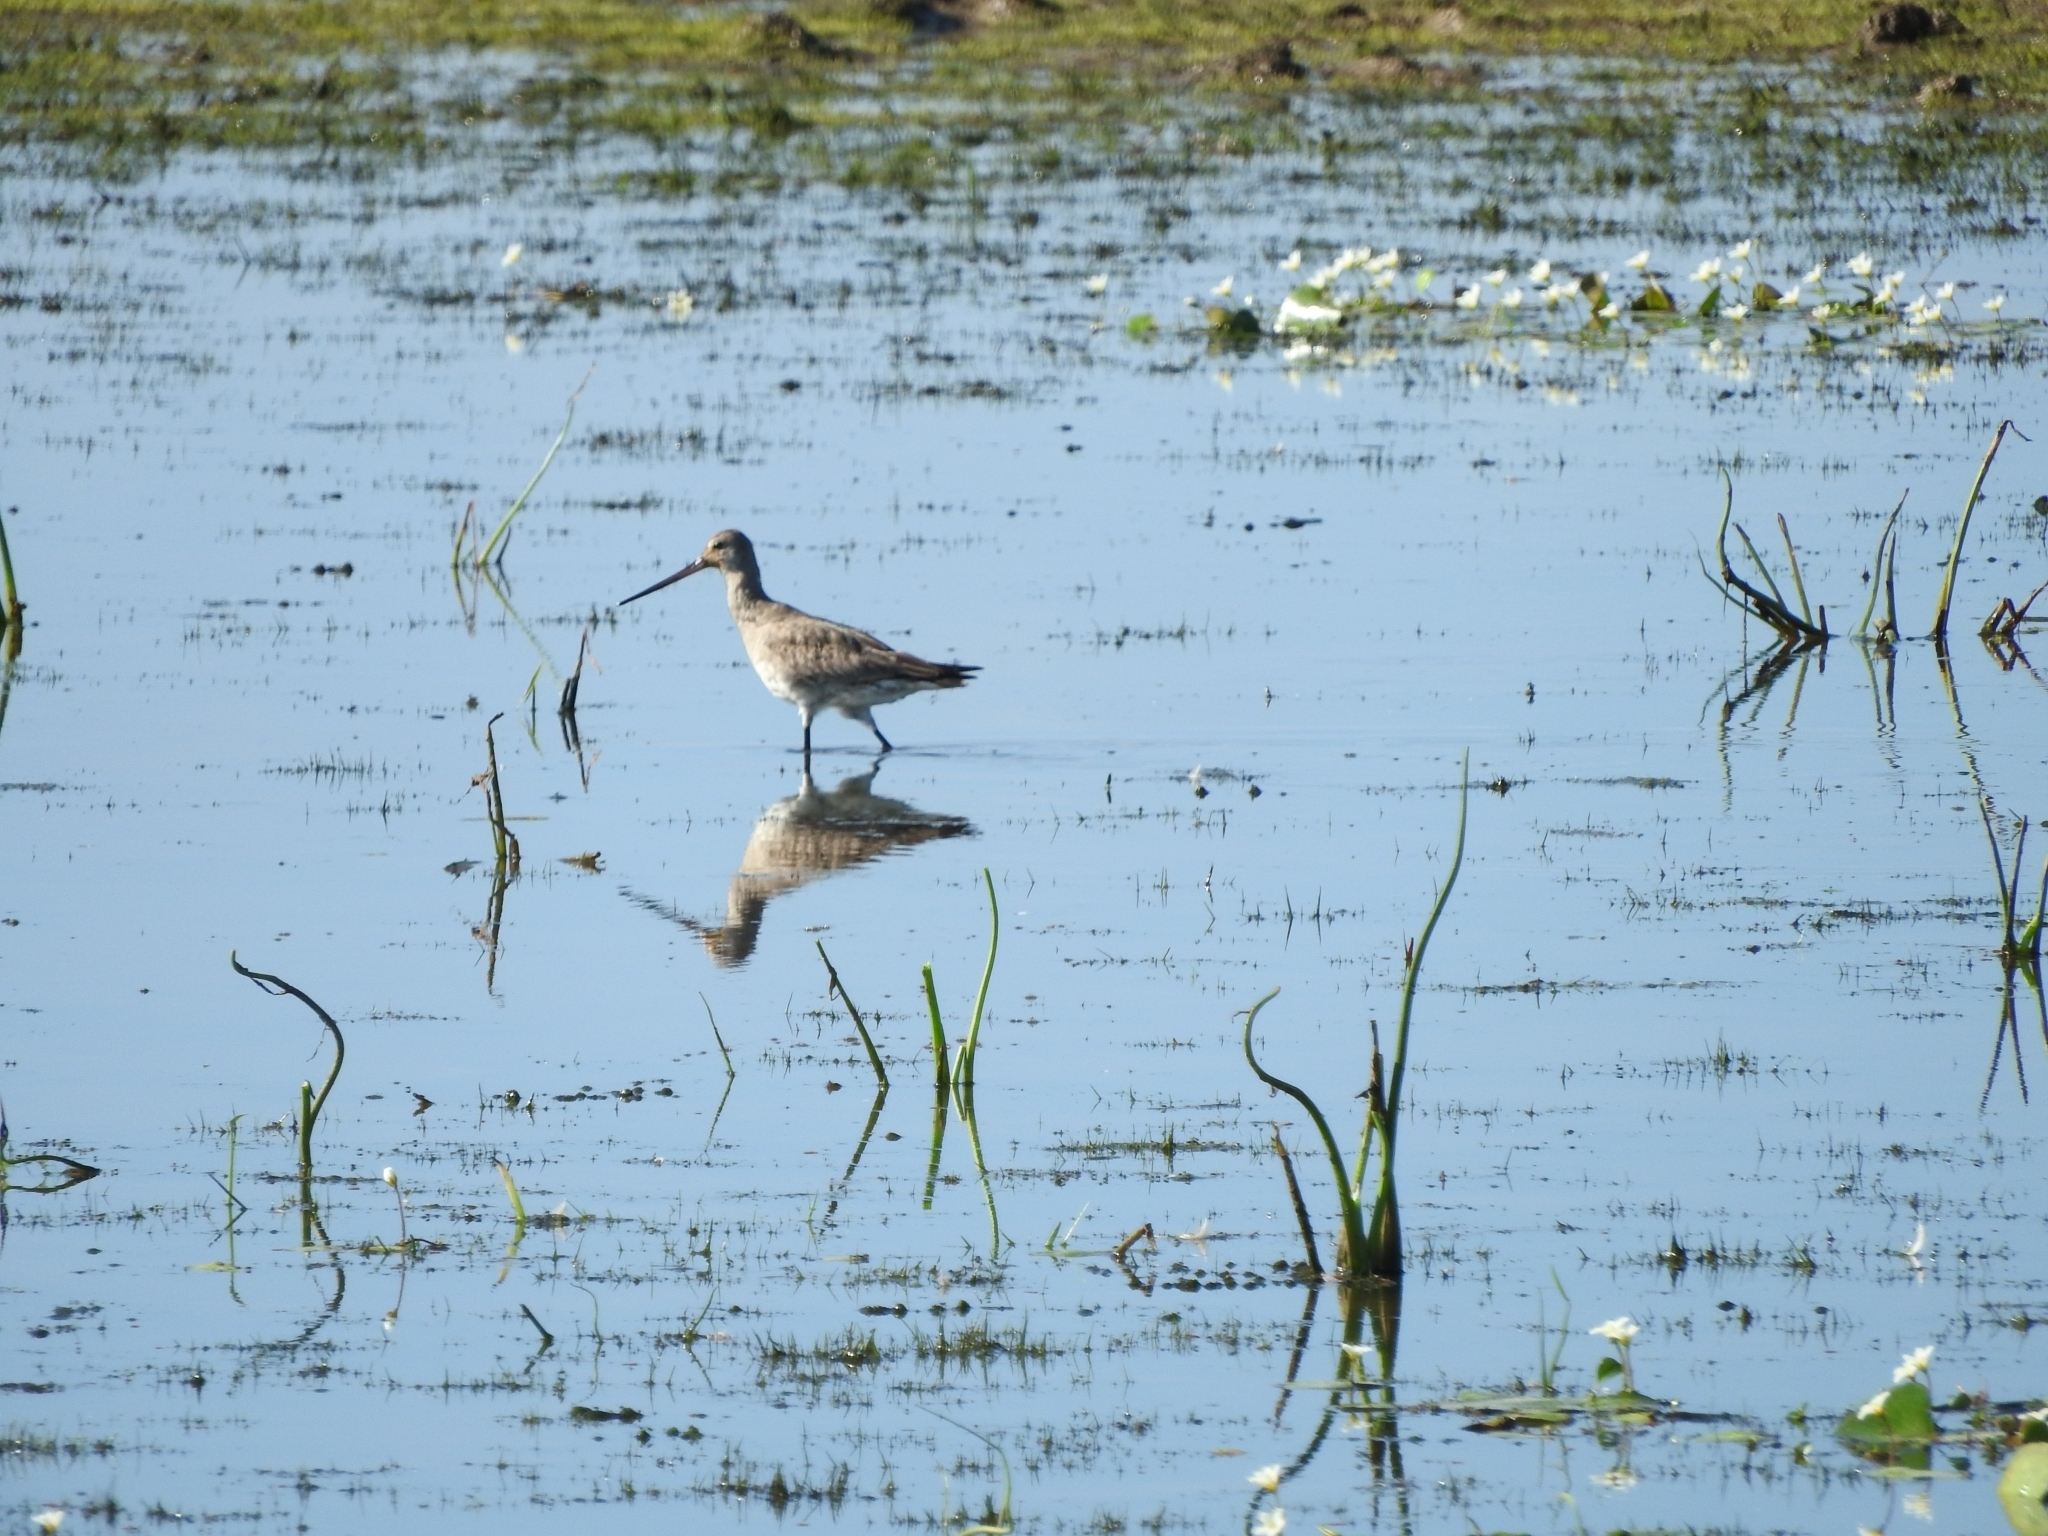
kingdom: Animalia
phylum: Chordata
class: Aves
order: Charadriiformes
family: Scolopacidae
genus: Limosa
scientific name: Limosa haemastica
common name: Hudsonian godwit
